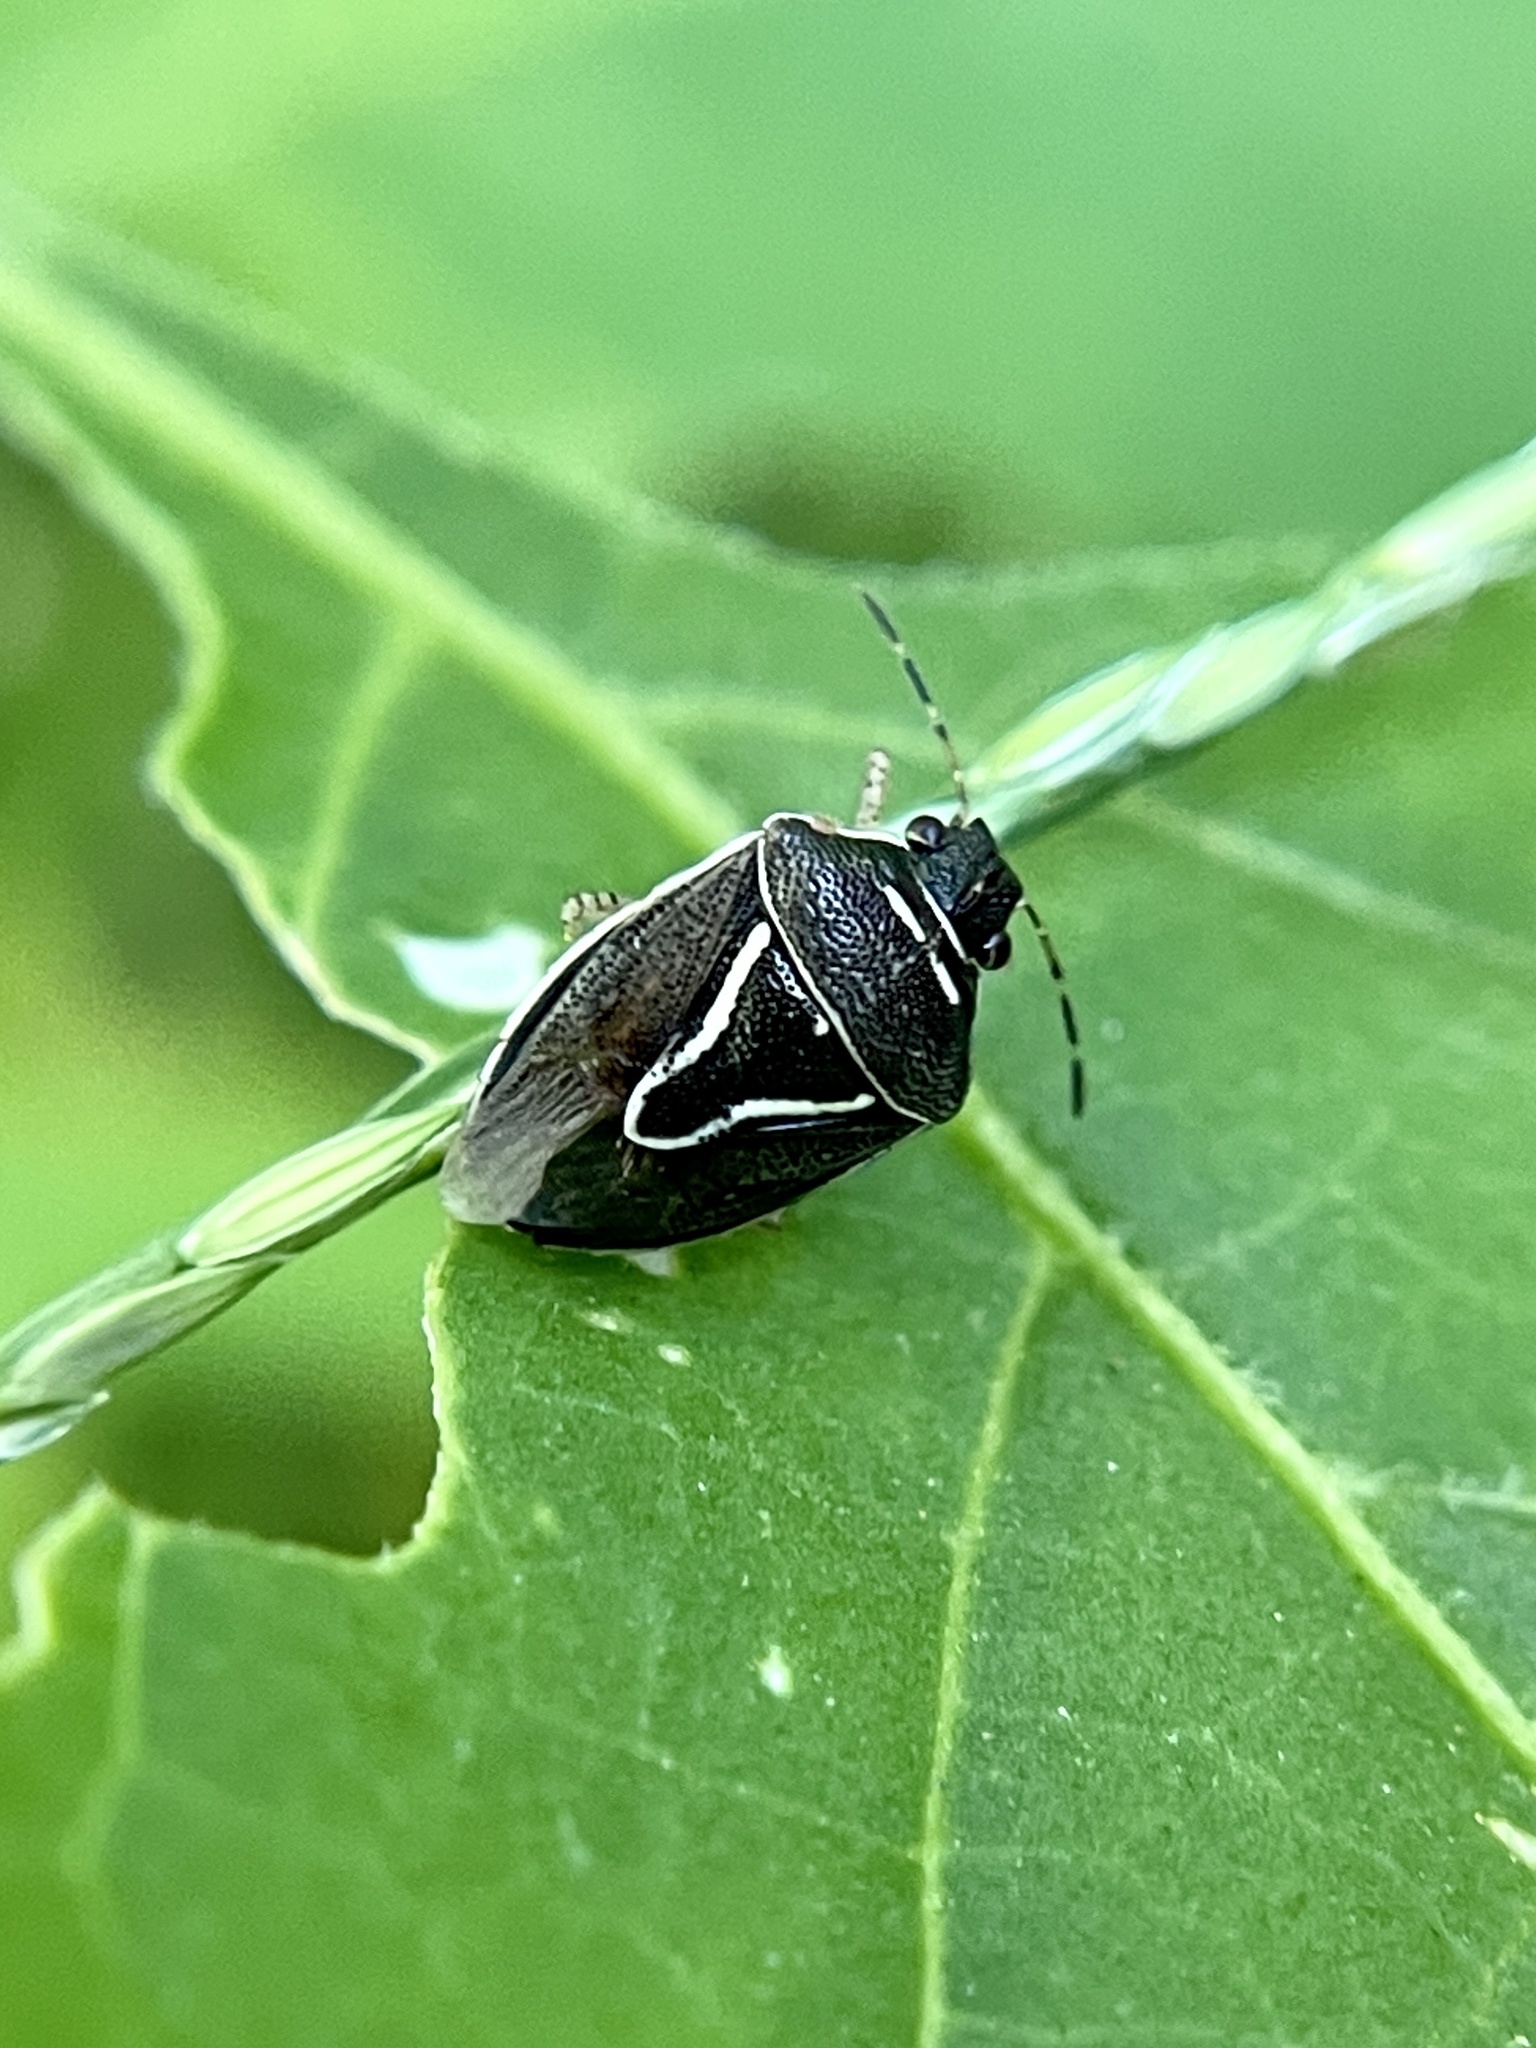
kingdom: Animalia
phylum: Arthropoda
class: Insecta
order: Hemiptera
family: Pentatomidae
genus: Mormidea
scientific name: Mormidea lugens
